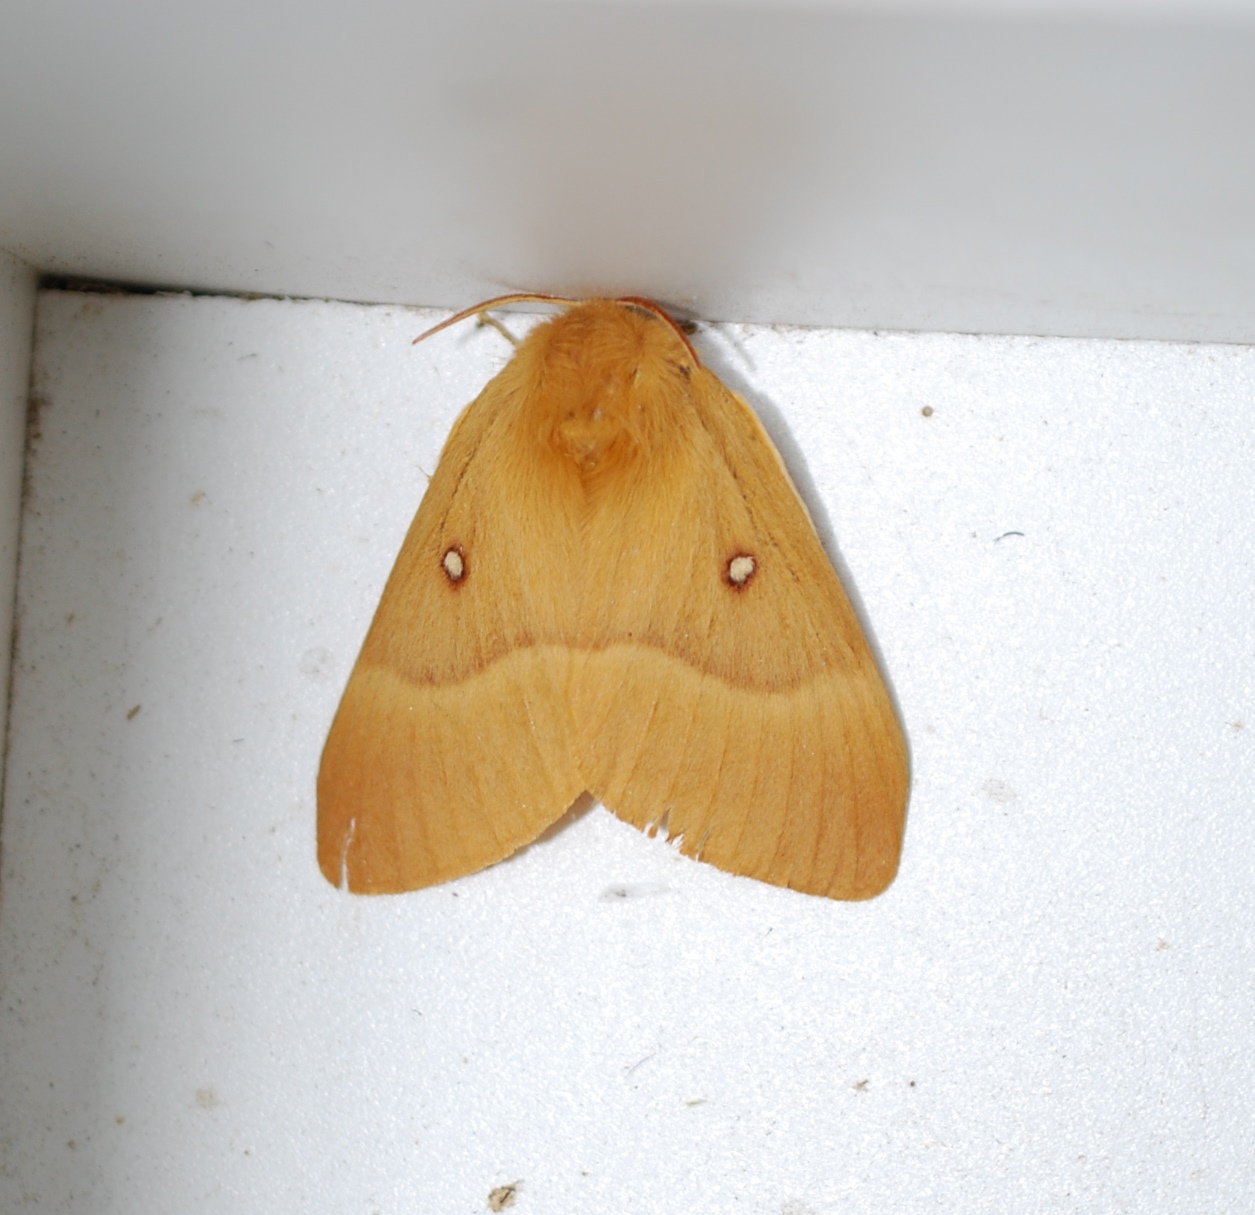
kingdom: Animalia
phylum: Arthropoda
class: Insecta
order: Lepidoptera
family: Lasiocampidae
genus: Lasiocampa
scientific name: Lasiocampa quercus
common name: Oak eggar
